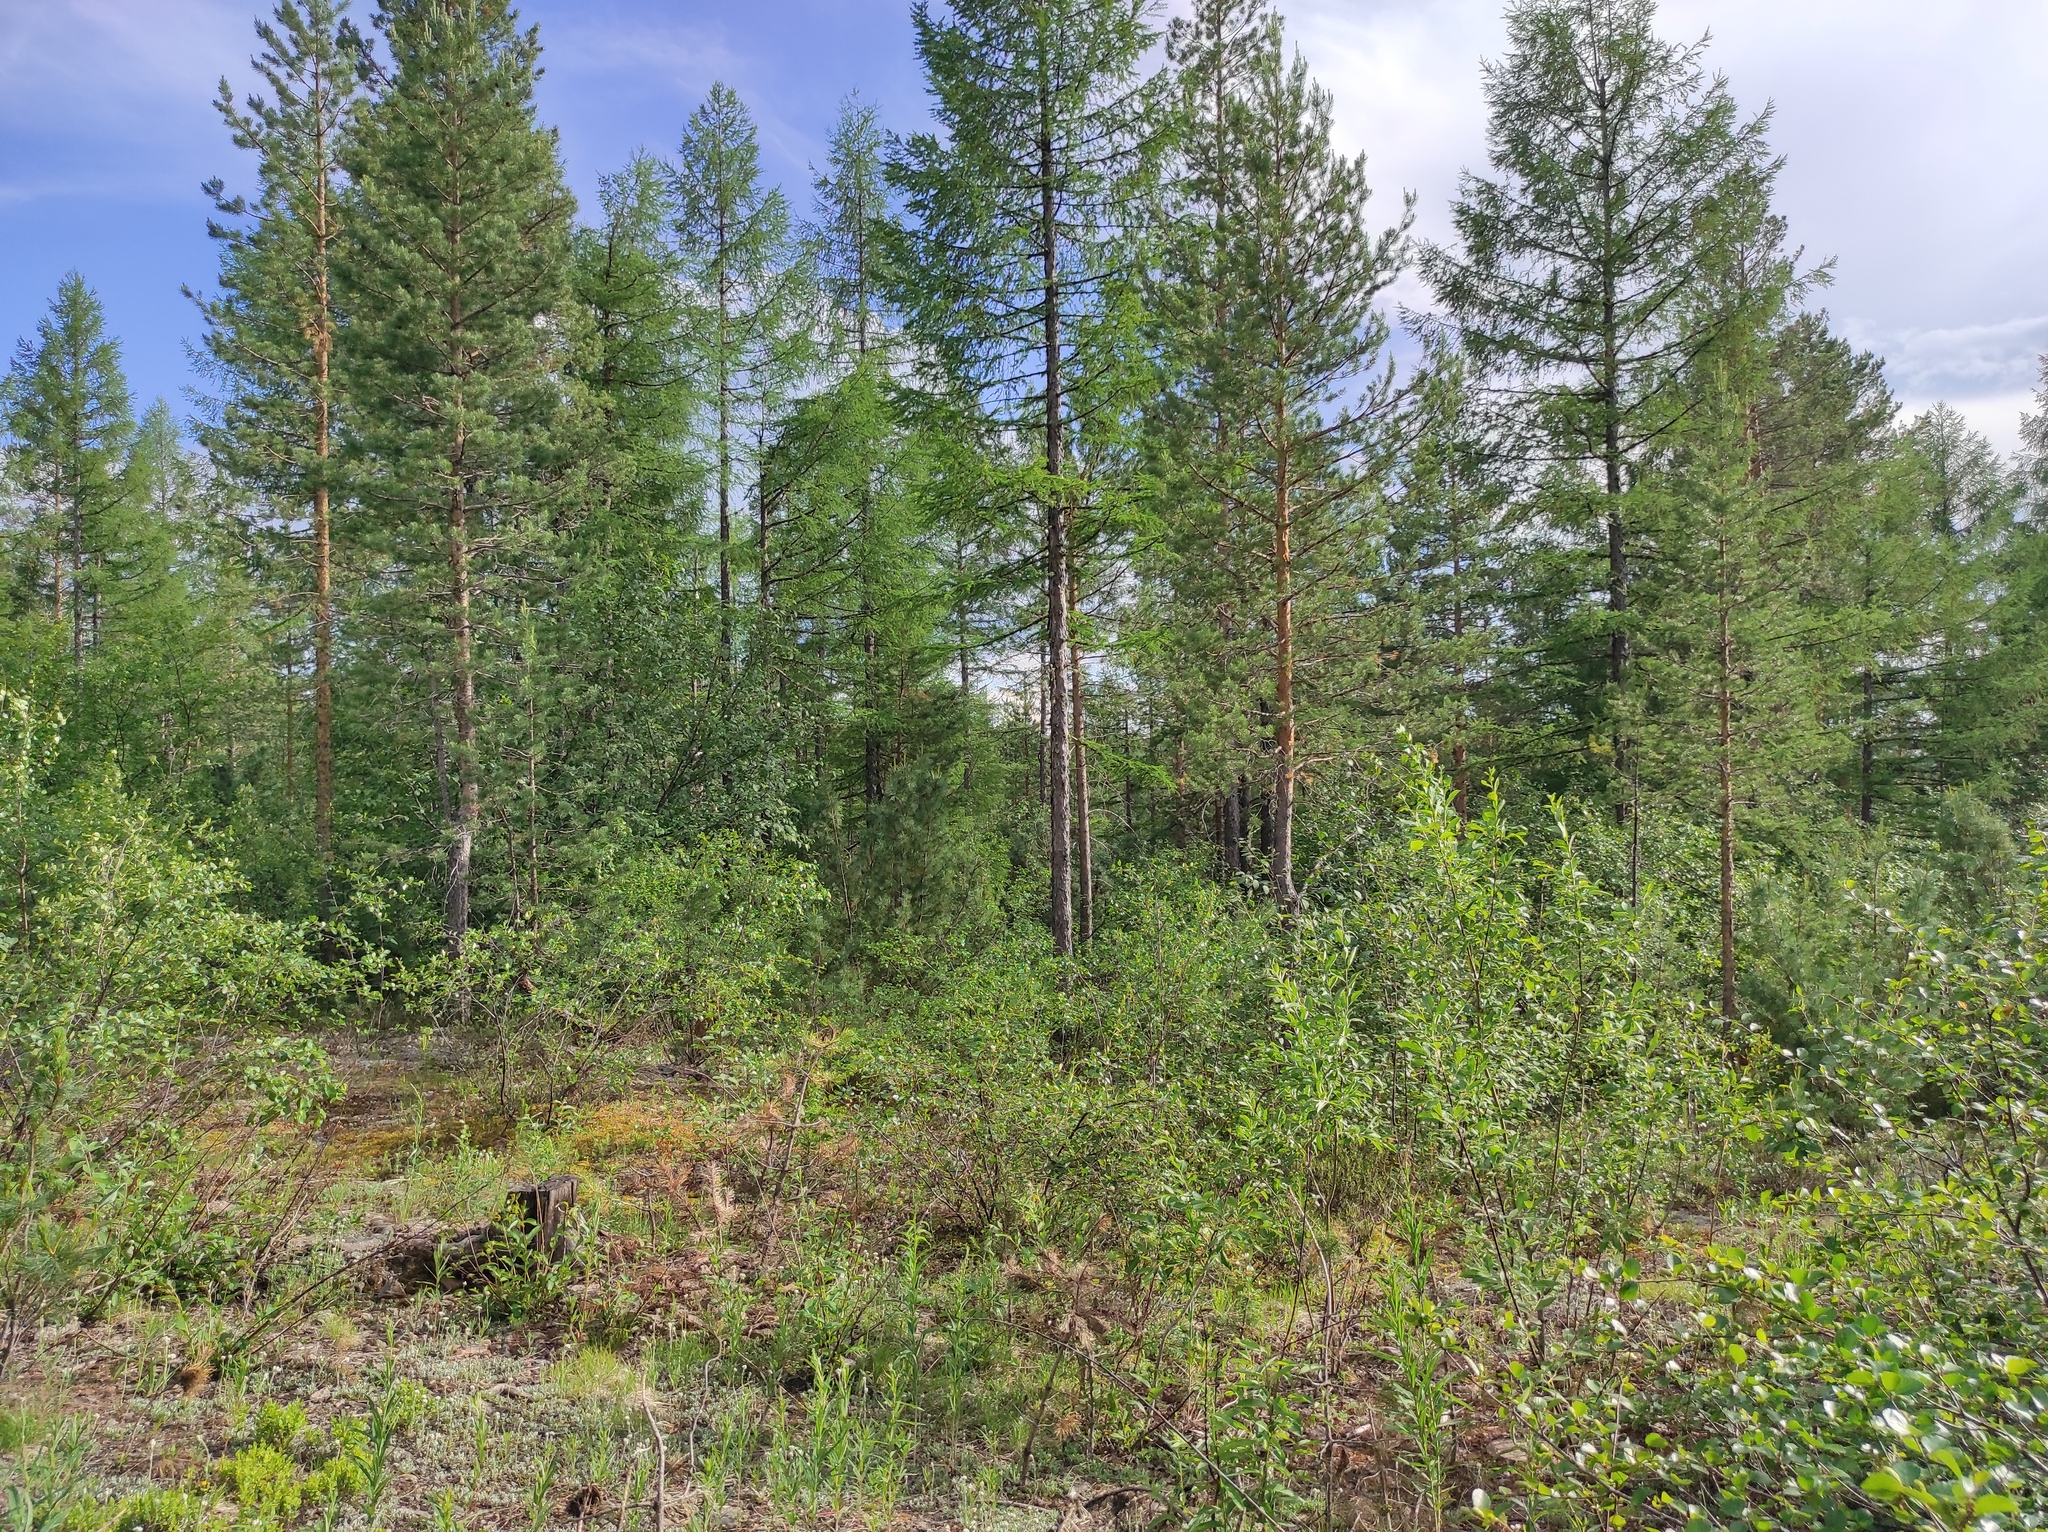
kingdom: Plantae
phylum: Tracheophyta
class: Pinopsida
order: Pinales
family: Pinaceae
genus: Larix
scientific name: Larix gmelinii
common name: Dahurian larch
